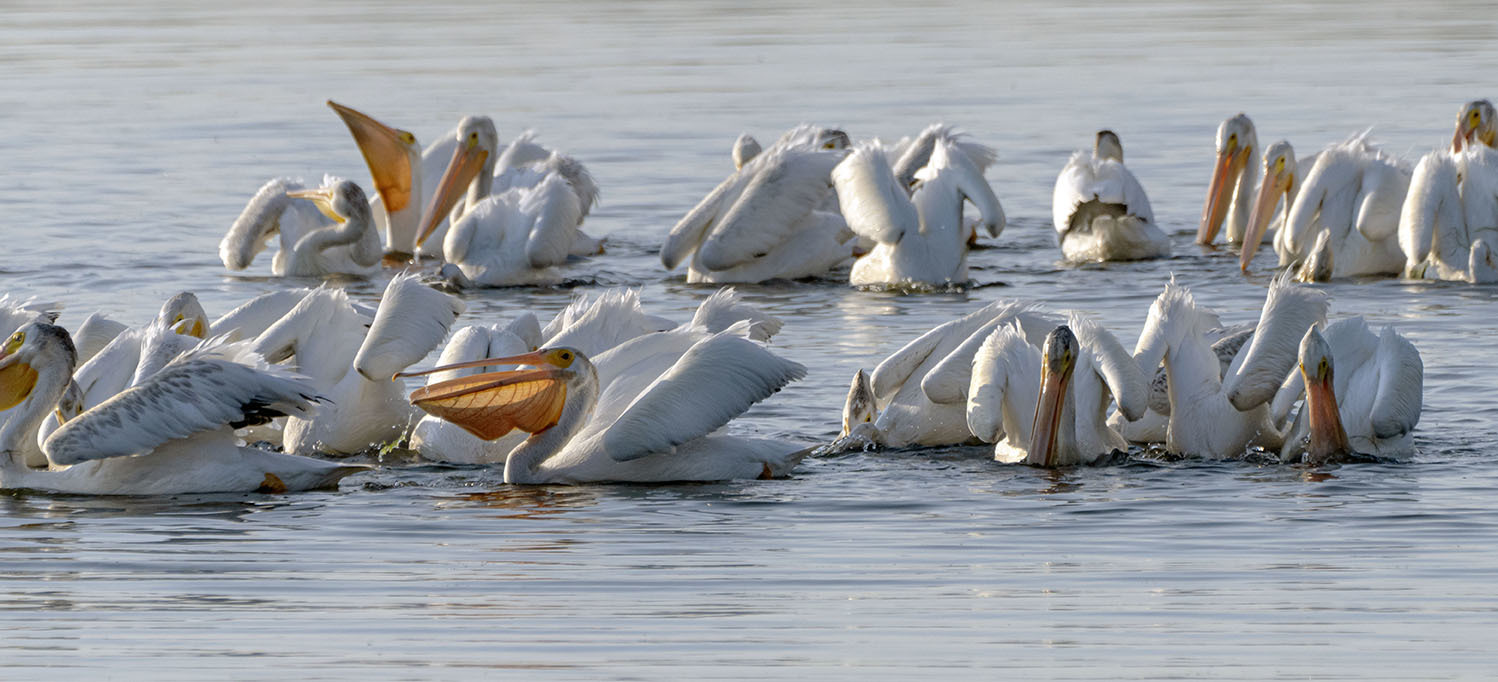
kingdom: Animalia
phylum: Chordata
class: Aves
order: Pelecaniformes
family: Pelecanidae
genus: Pelecanus
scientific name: Pelecanus erythrorhynchos
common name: American white pelican
